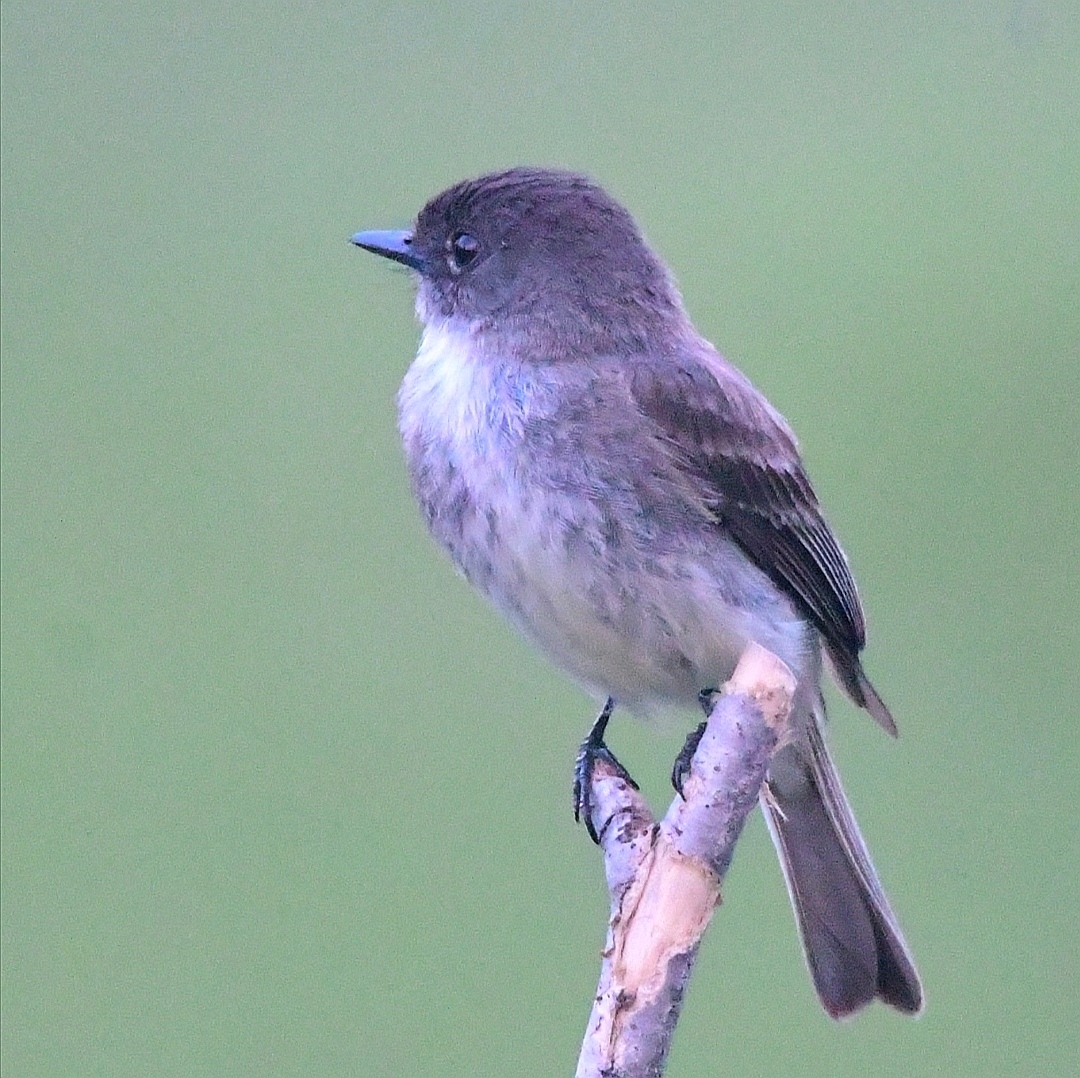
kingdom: Animalia
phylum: Chordata
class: Aves
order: Passeriformes
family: Tyrannidae
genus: Sayornis
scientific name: Sayornis phoebe
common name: Eastern phoebe
